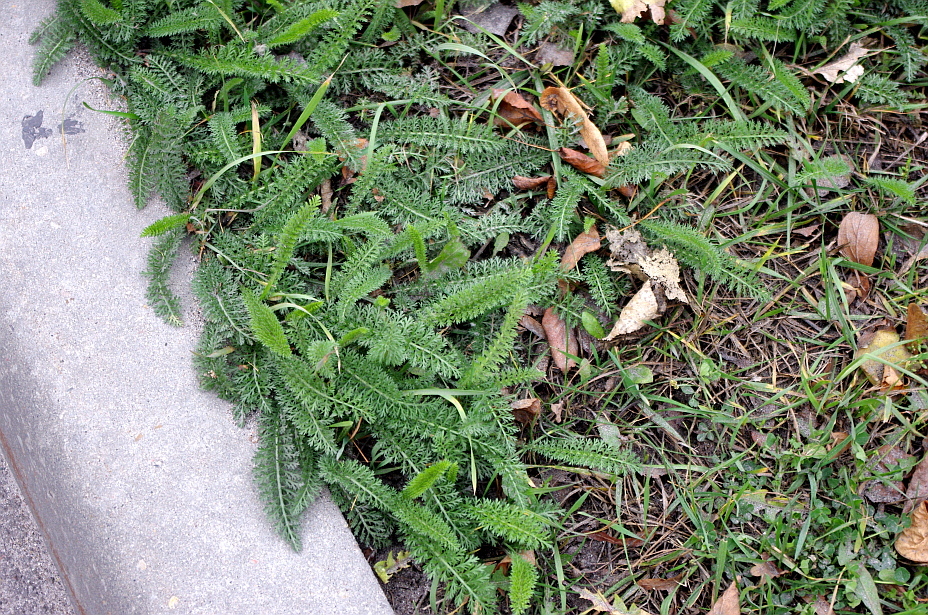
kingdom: Plantae
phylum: Tracheophyta
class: Magnoliopsida
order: Asterales
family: Asteraceae
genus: Achillea
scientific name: Achillea millefolium
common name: Yarrow
